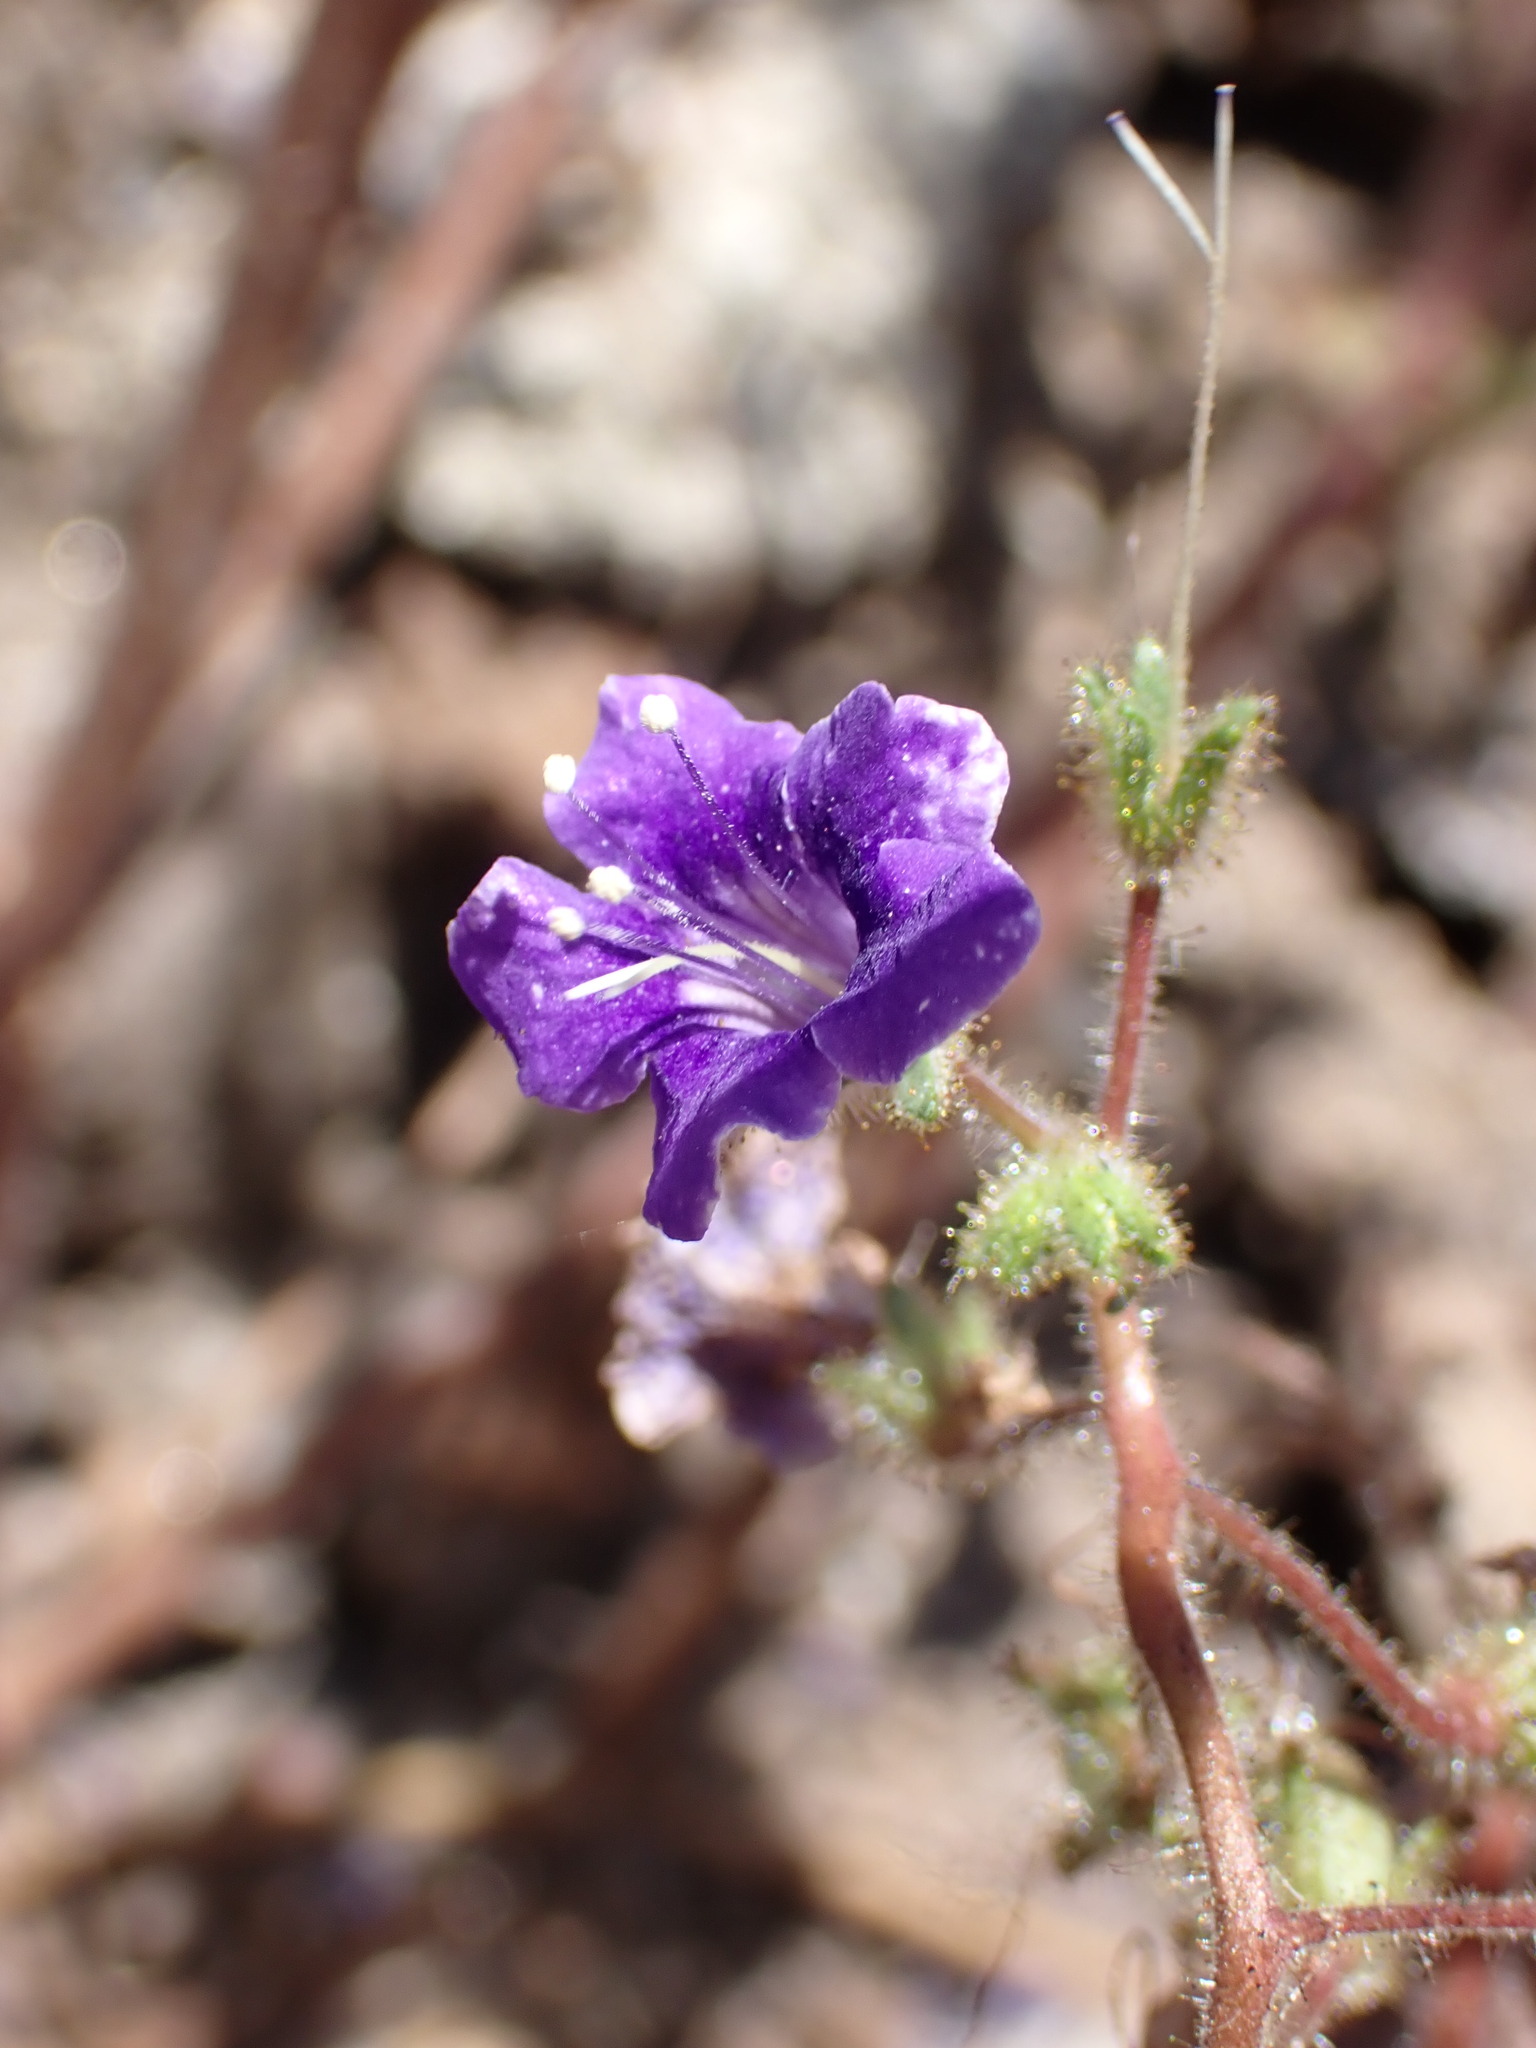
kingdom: Plantae
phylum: Tracheophyta
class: Magnoliopsida
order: Boraginales
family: Hydrophyllaceae
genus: Phacelia
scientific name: Phacelia minor
